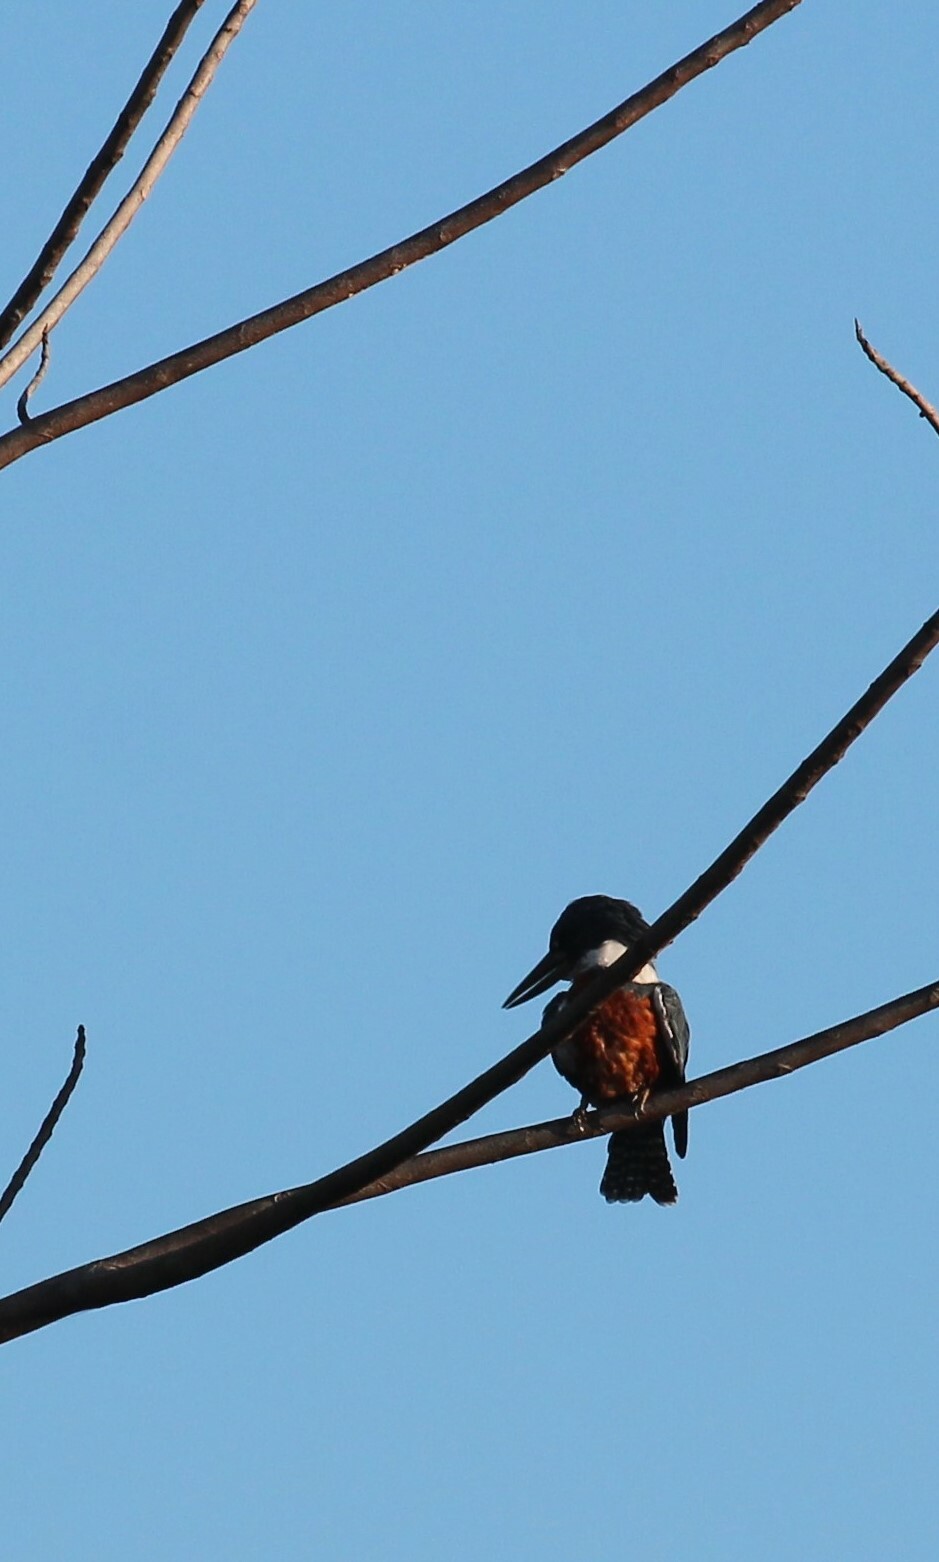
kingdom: Animalia
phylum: Chordata
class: Aves
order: Coraciiformes
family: Alcedinidae
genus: Megaceryle
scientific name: Megaceryle torquata
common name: Ringed kingfisher
